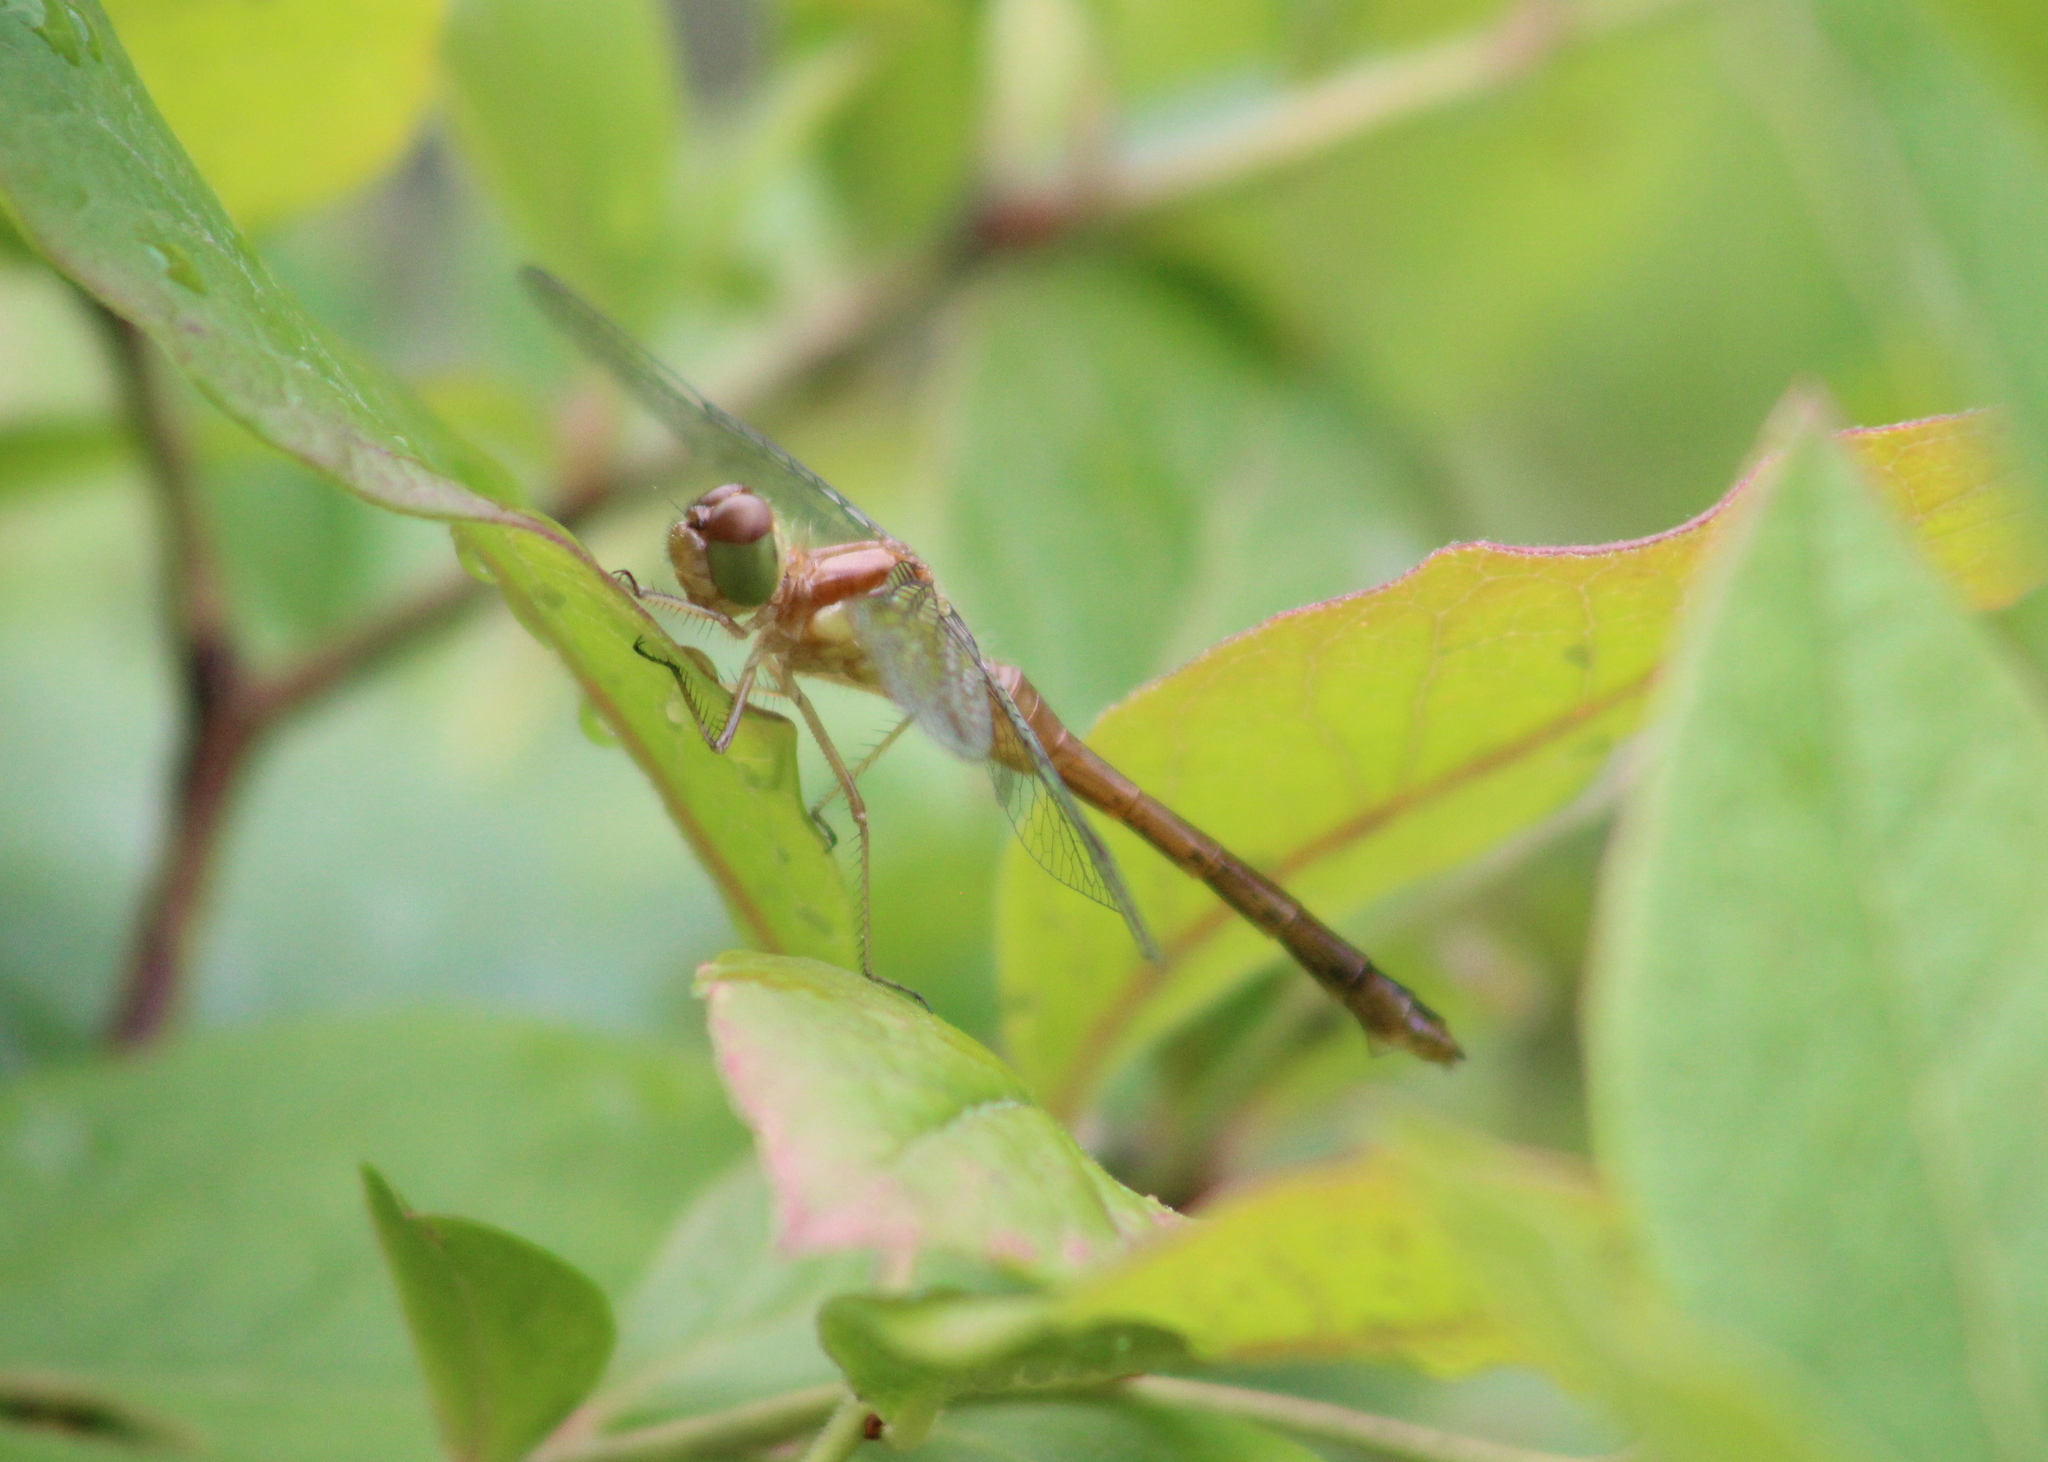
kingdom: Animalia
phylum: Arthropoda
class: Insecta
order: Odonata
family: Libellulidae
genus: Sympetrum
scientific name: Sympetrum vicinum
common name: Autumn meadowhawk
